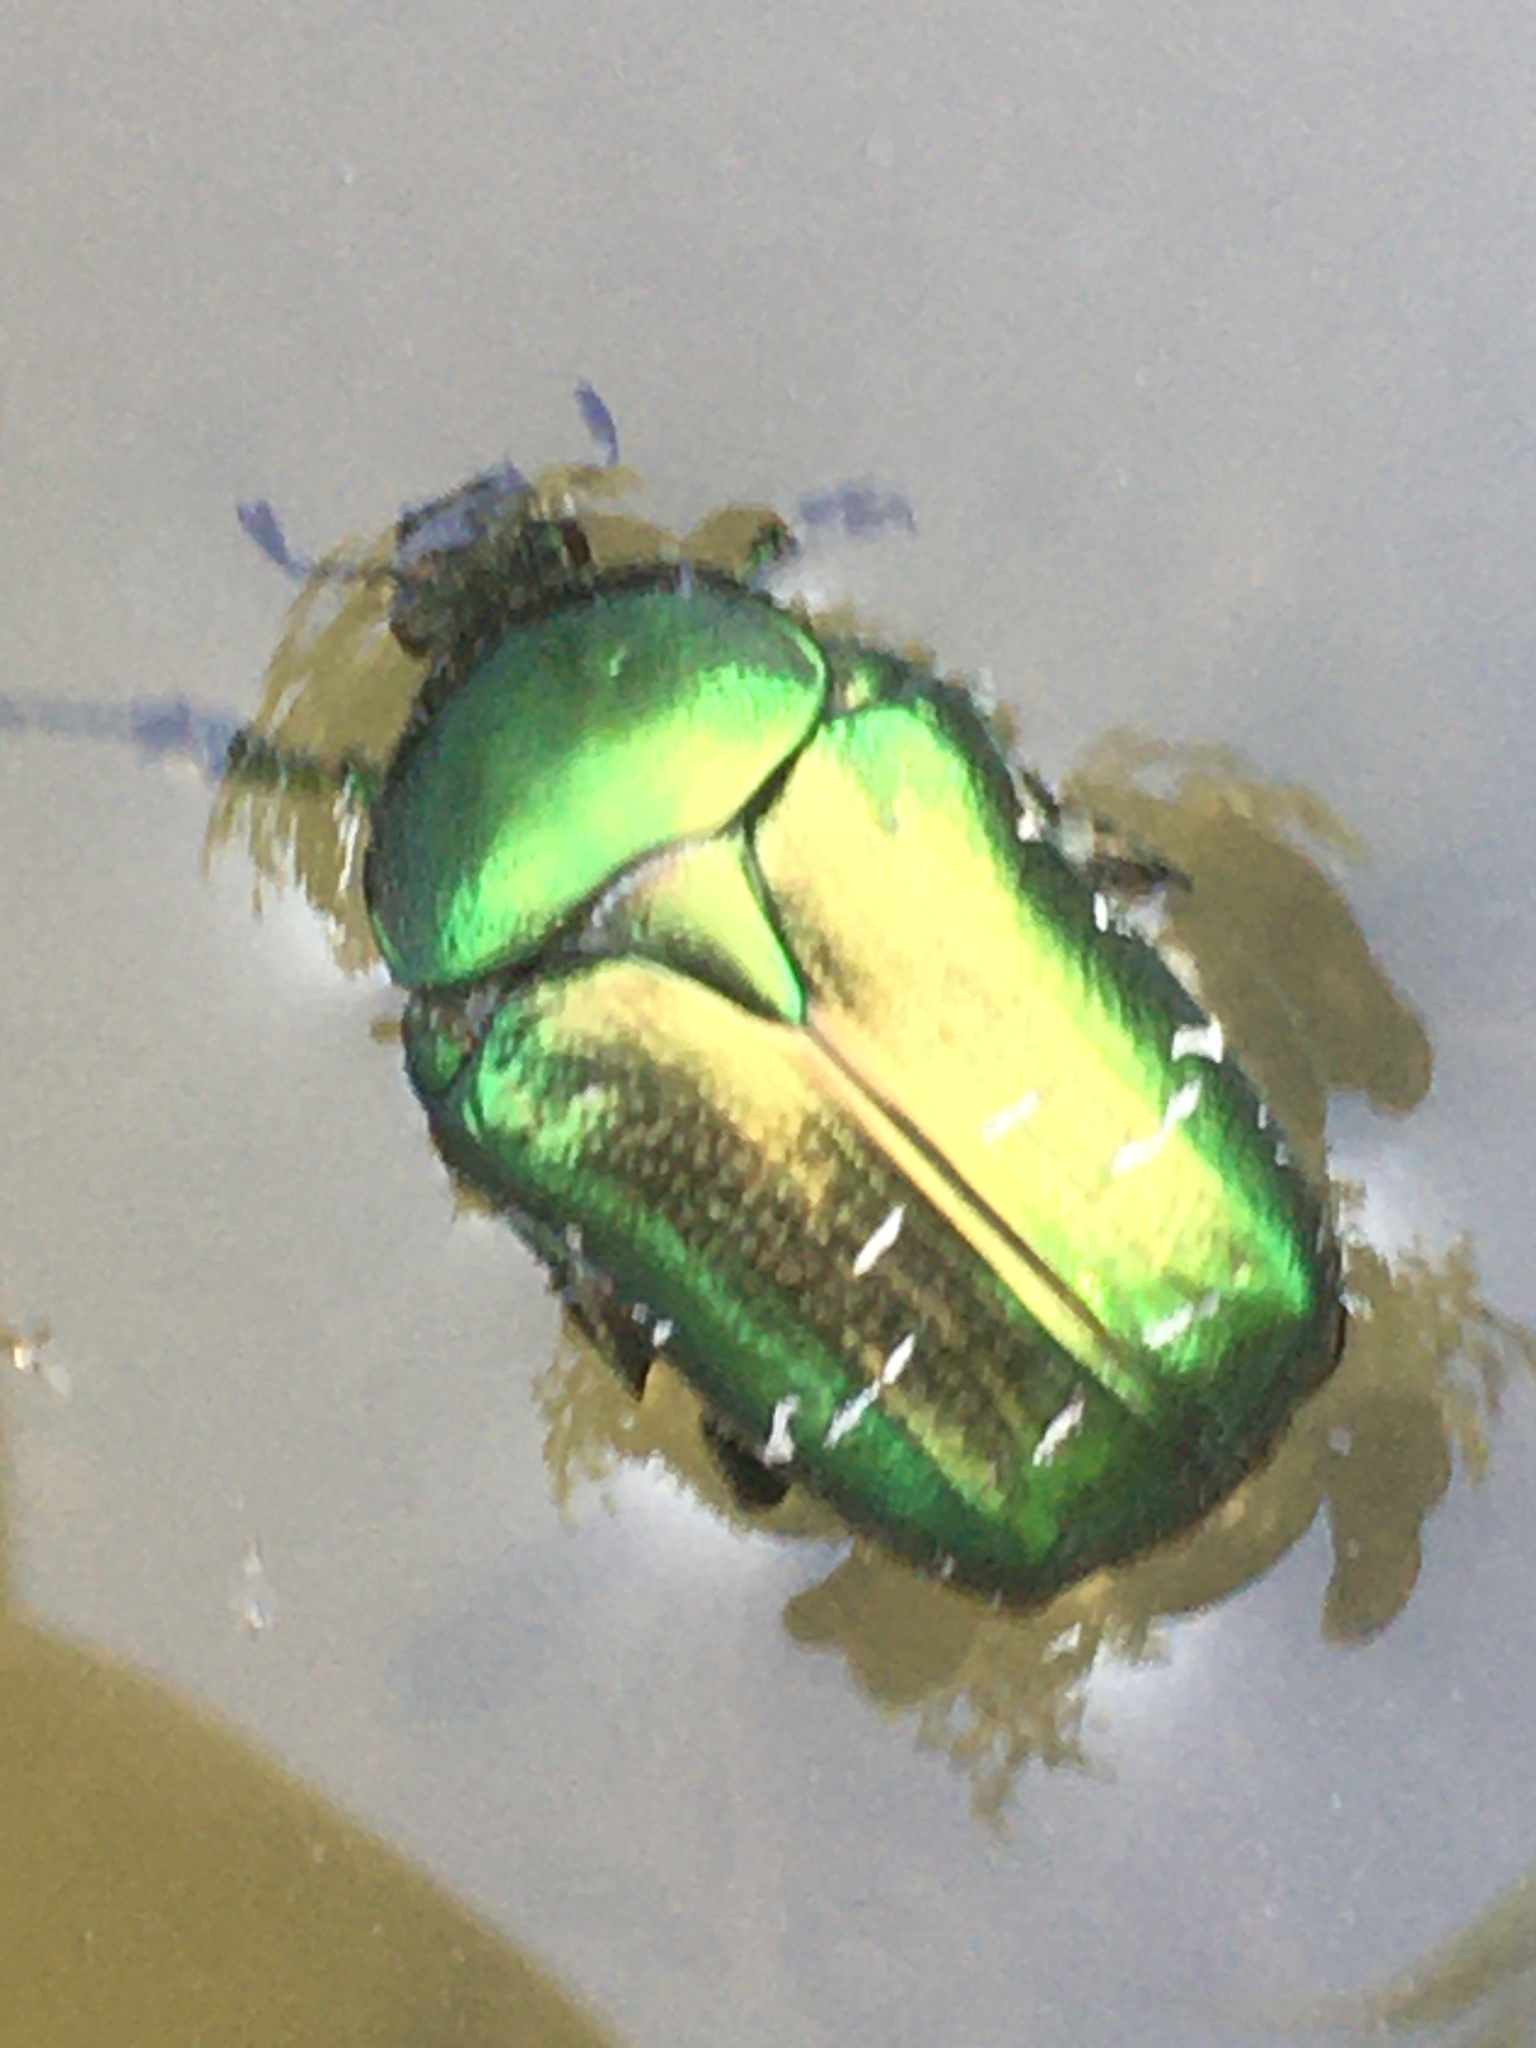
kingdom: Animalia
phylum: Arthropoda
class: Insecta
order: Coleoptera
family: Scarabaeidae
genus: Cetonia
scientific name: Cetonia aurata
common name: Rose chafer
